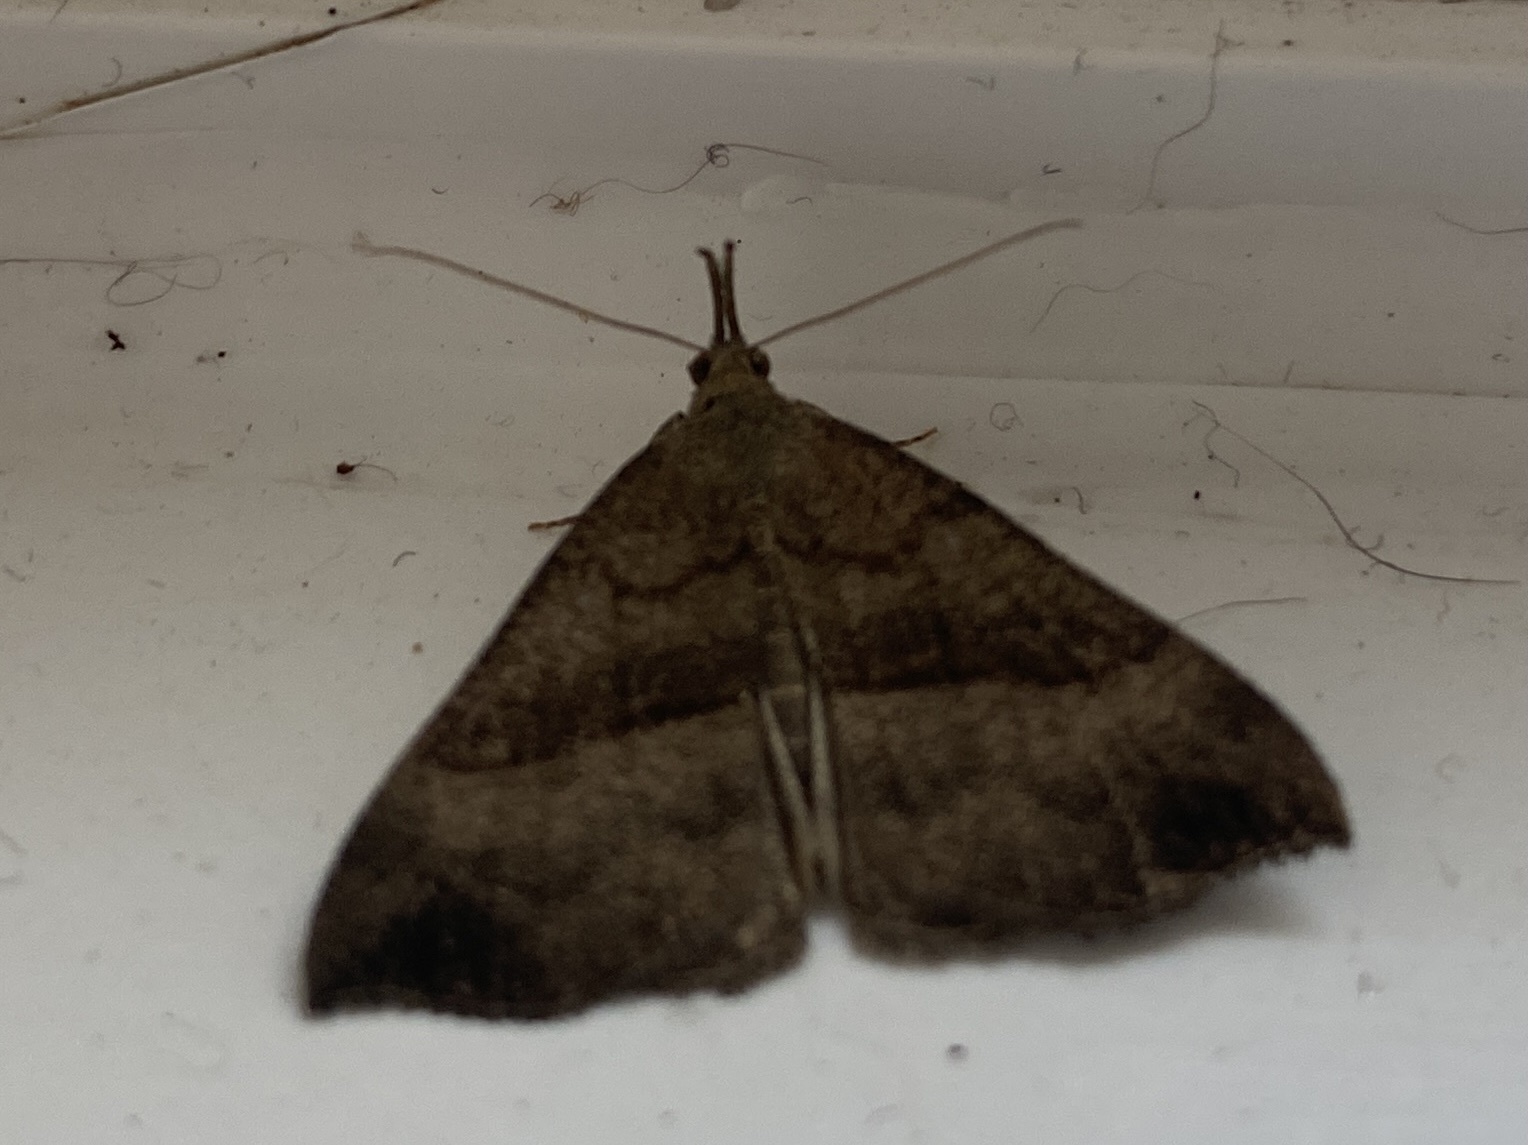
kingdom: Animalia
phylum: Arthropoda
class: Insecta
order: Lepidoptera
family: Erebidae
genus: Hypena
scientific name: Hypena proboscidalis
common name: Snout
